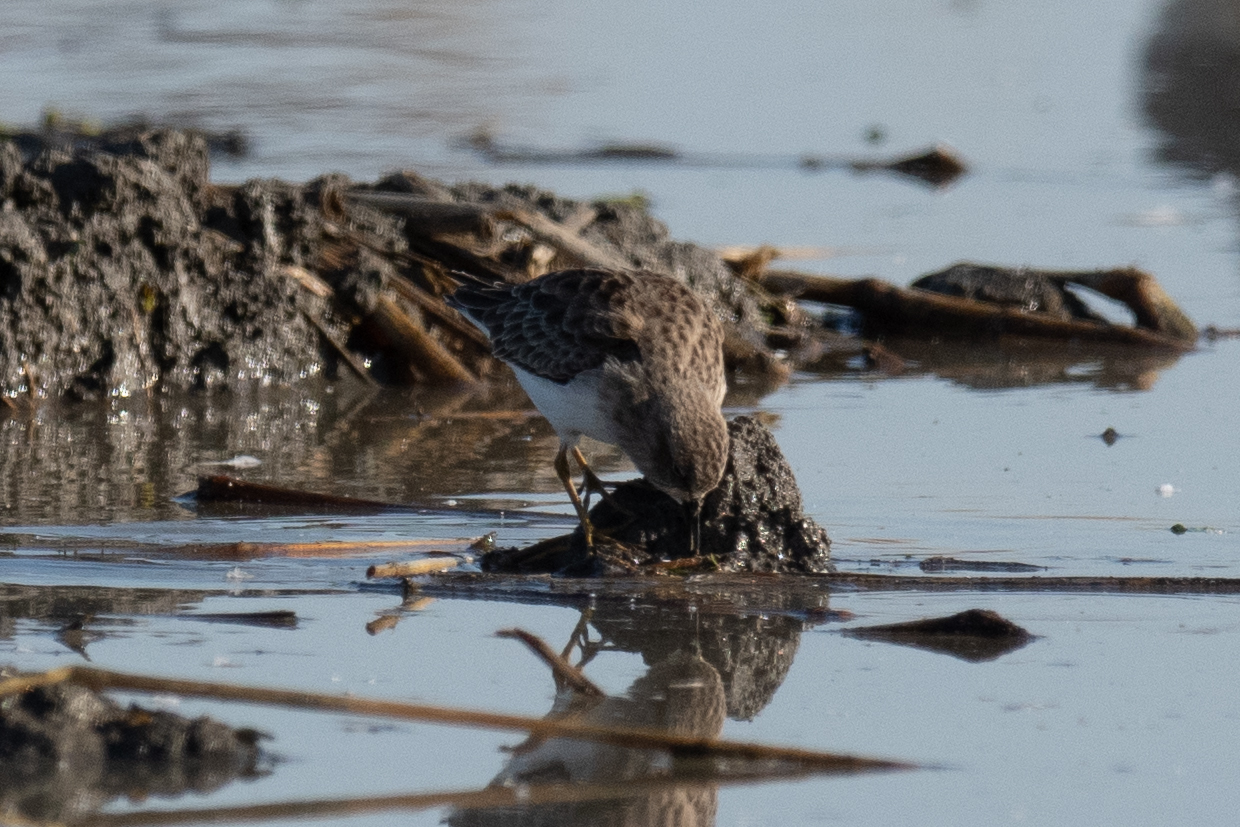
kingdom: Animalia
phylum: Chordata
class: Aves
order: Charadriiformes
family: Scolopacidae
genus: Calidris
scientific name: Calidris minutilla
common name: Least sandpiper
